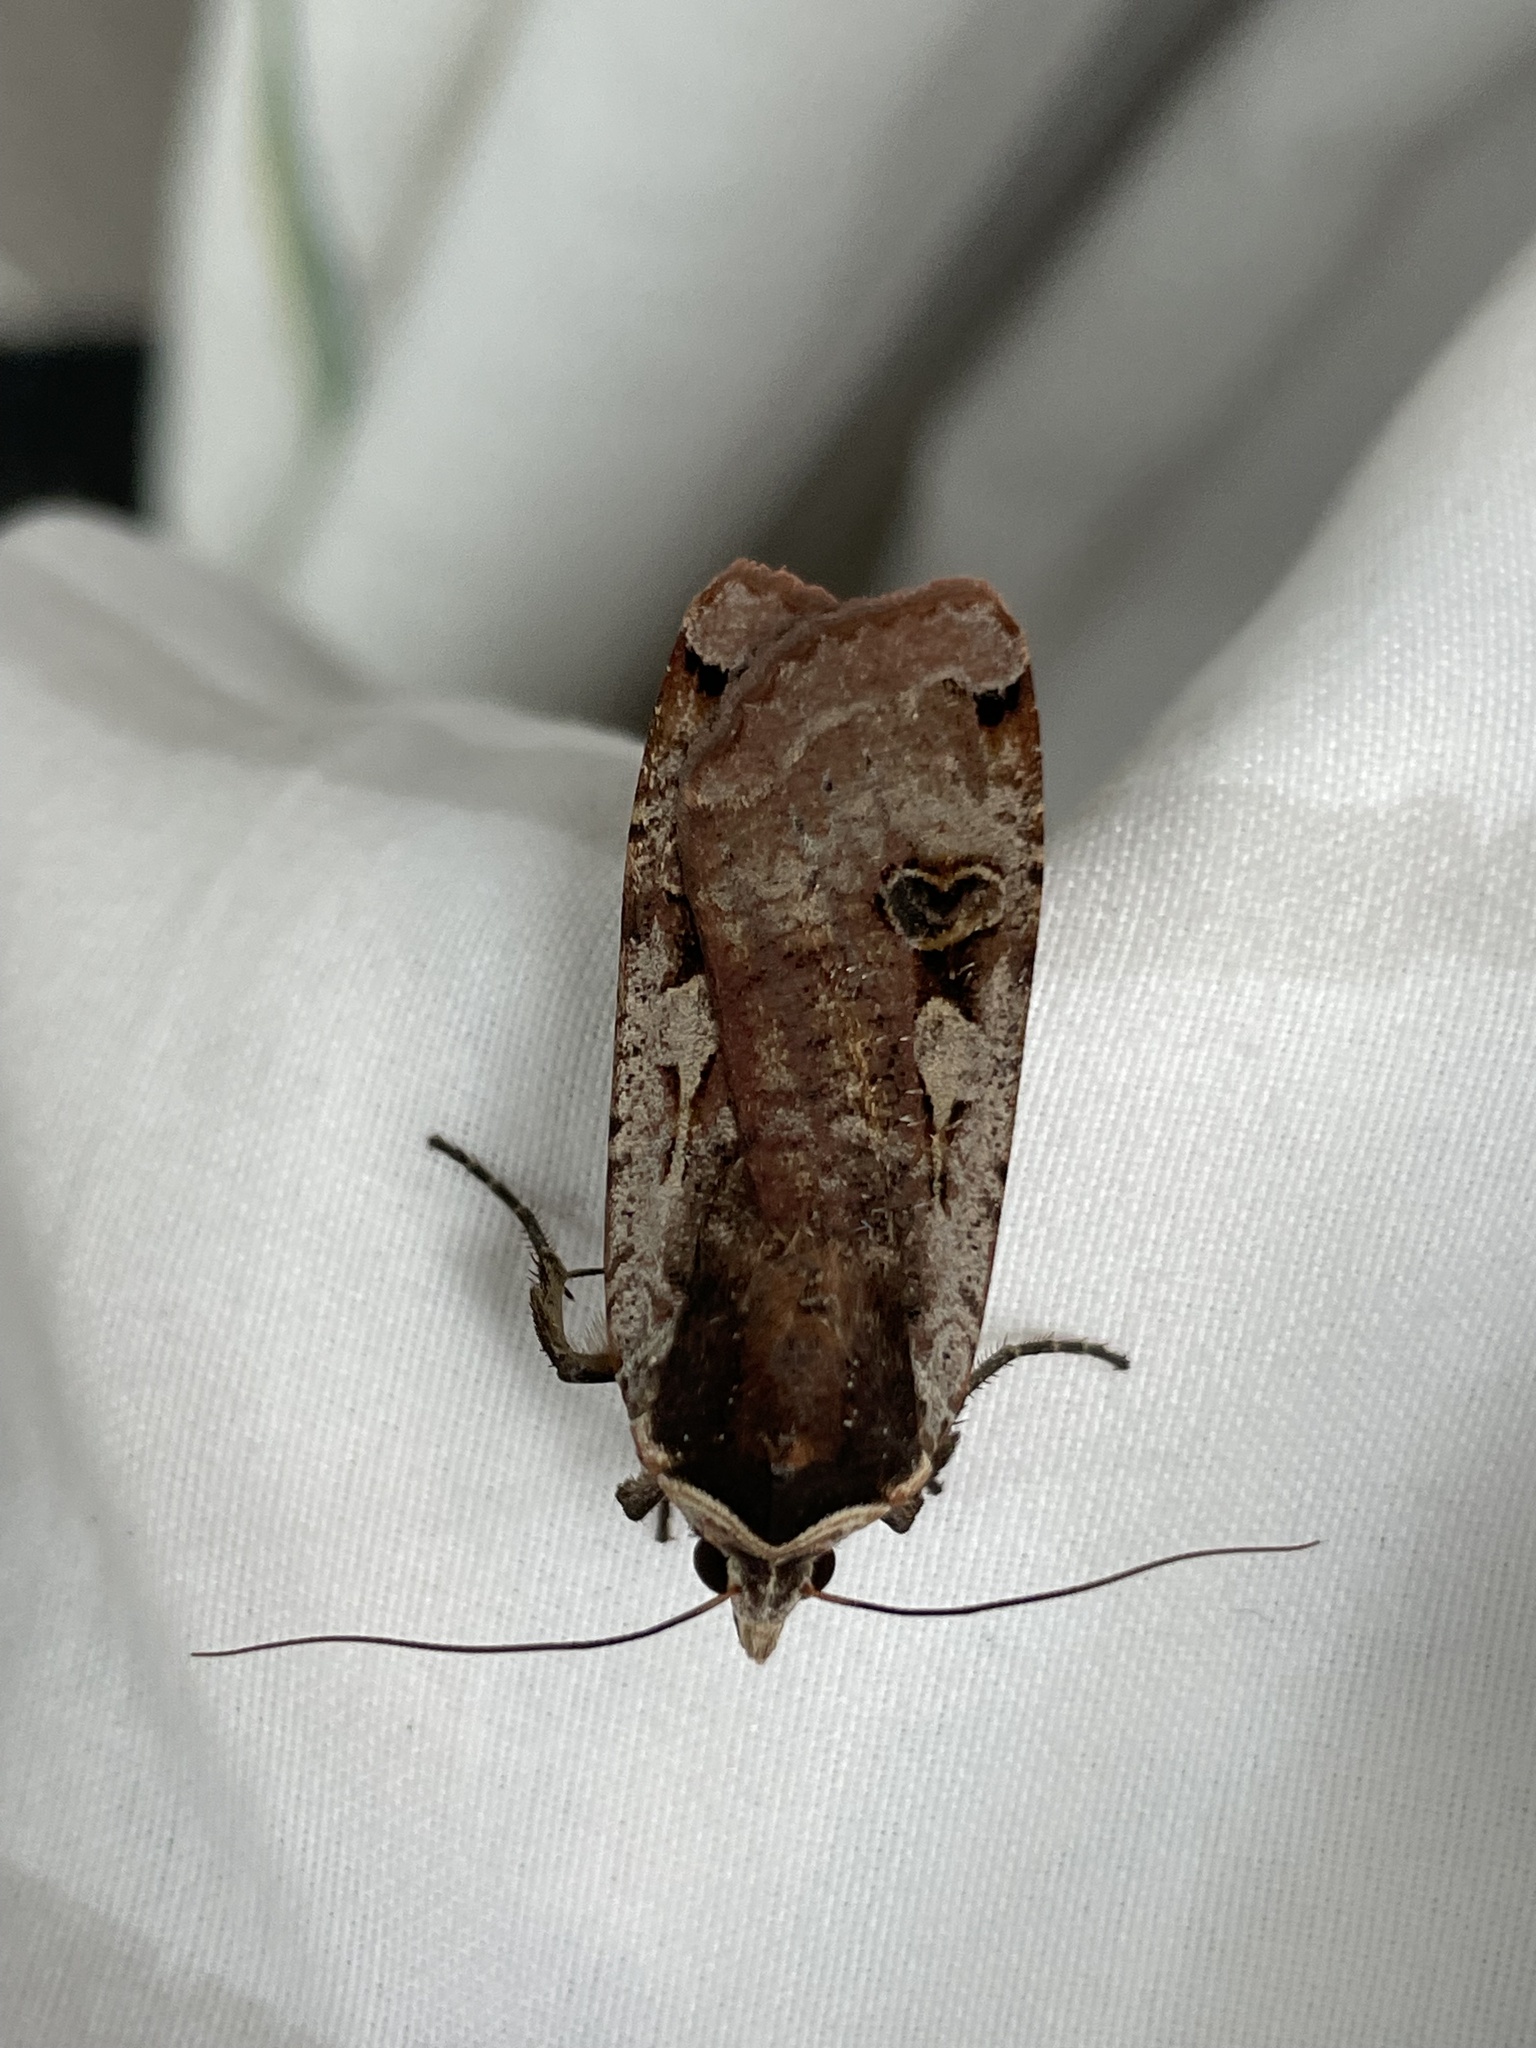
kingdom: Animalia
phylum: Arthropoda
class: Insecta
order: Lepidoptera
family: Noctuidae
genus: Noctua
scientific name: Noctua pronuba
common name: Large yellow underwing
